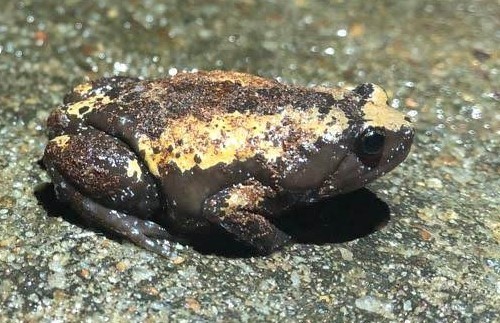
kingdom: Animalia
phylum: Chordata
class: Amphibia
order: Anura
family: Microhylidae
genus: Uperodon
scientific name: Uperodon triangularis
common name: Malabar dot frog
